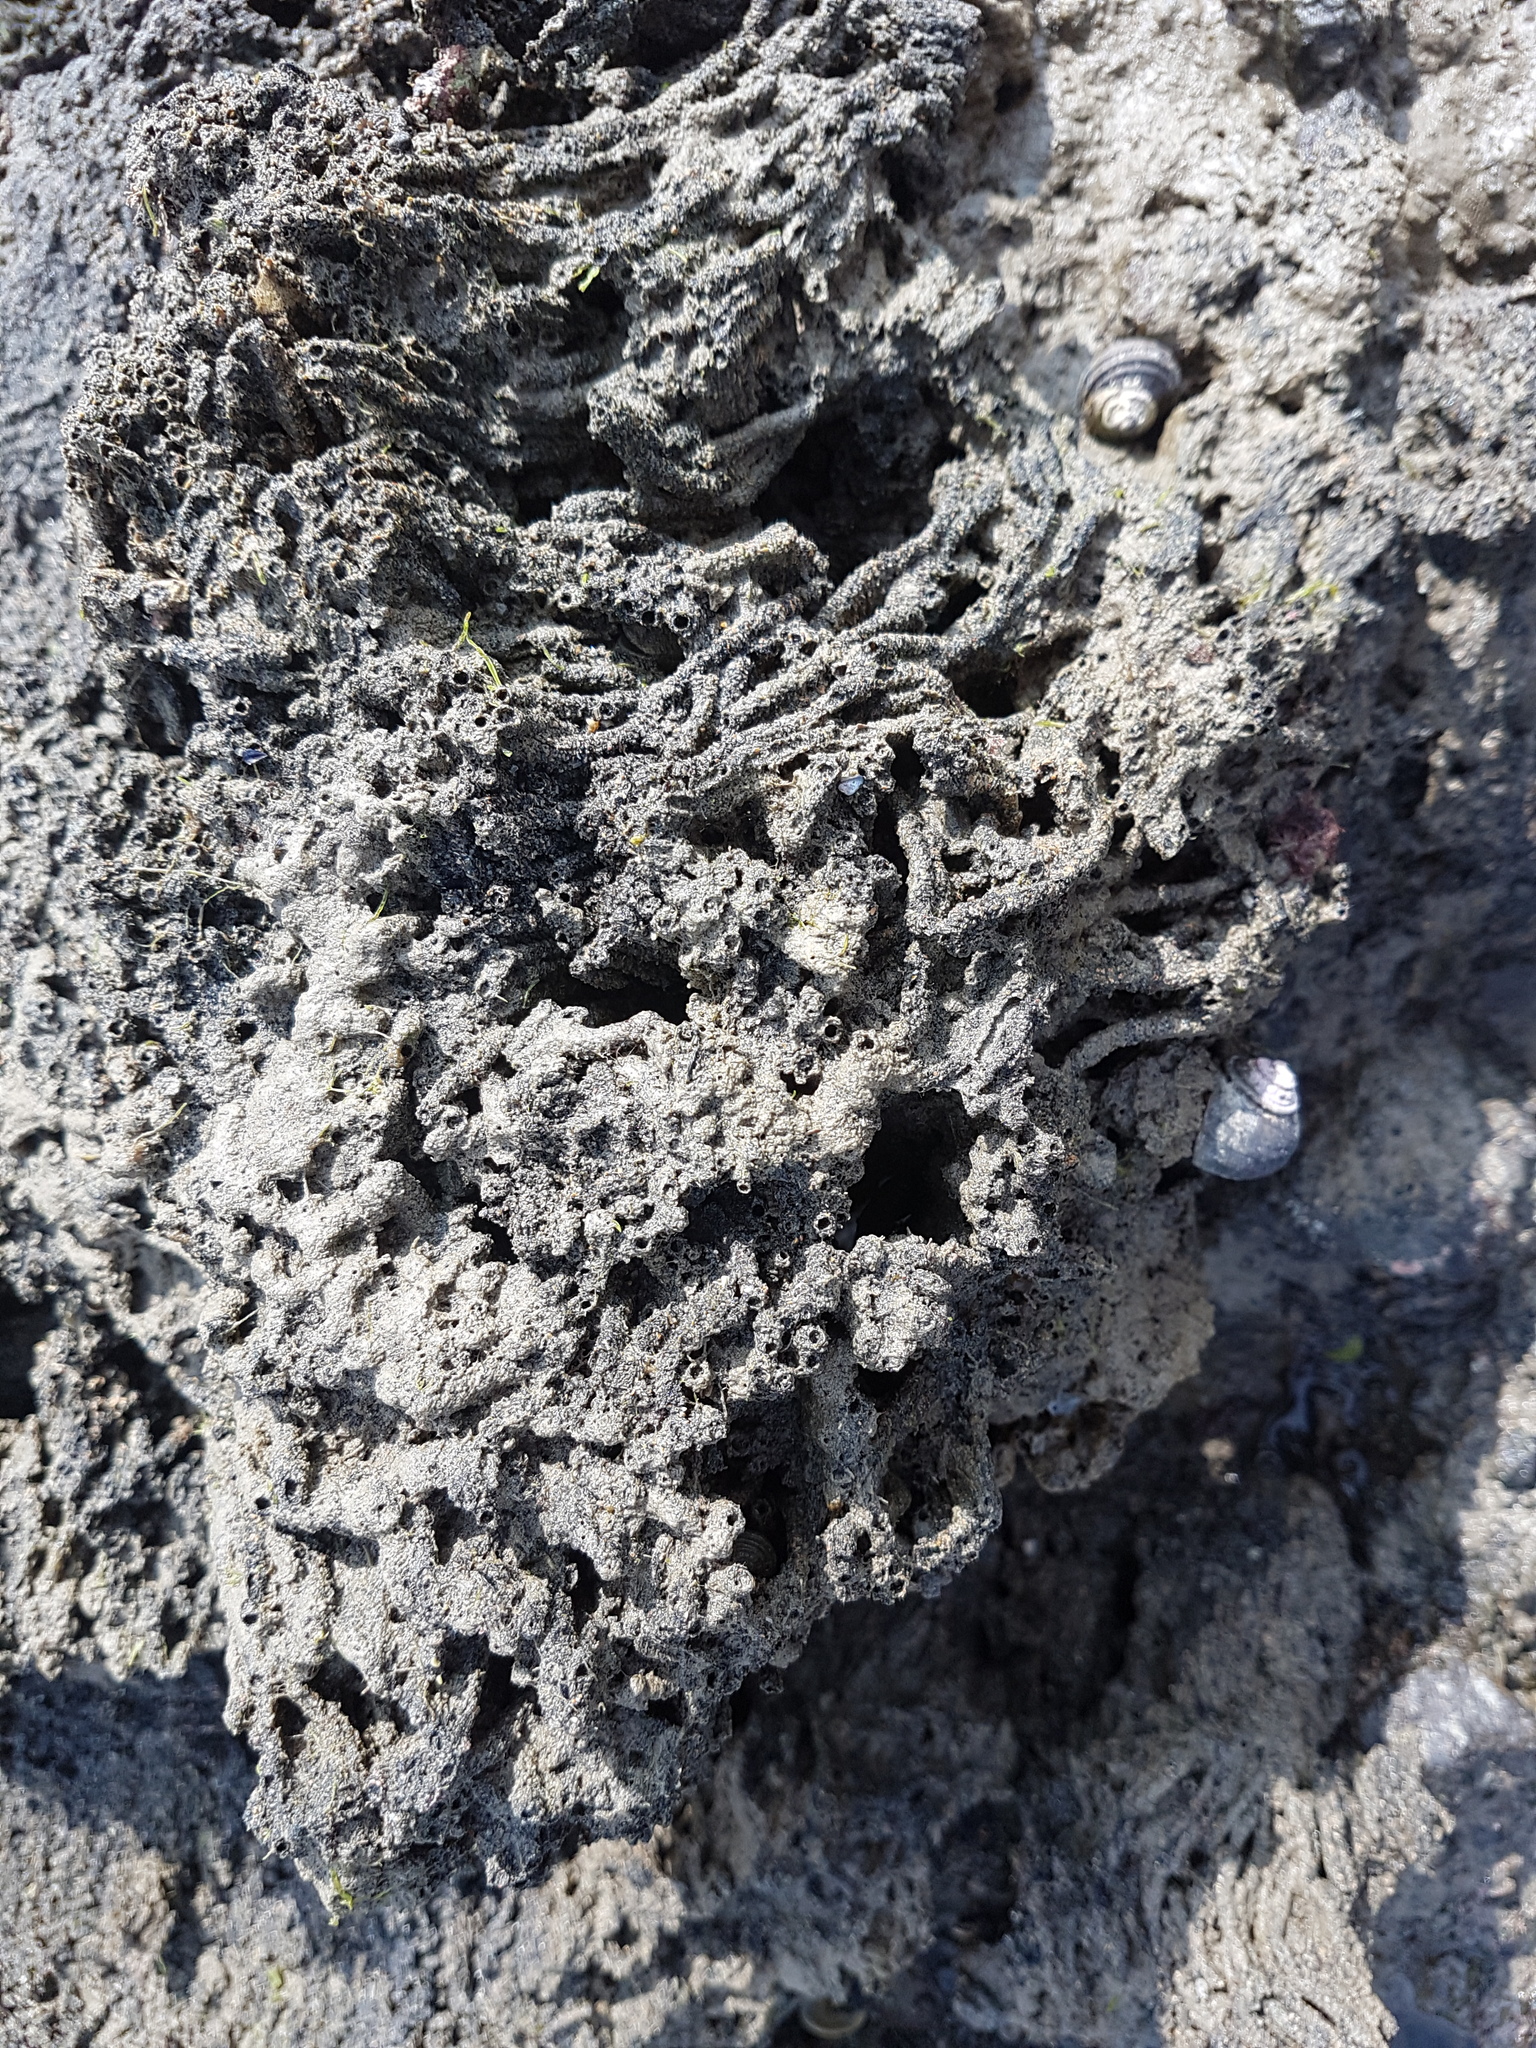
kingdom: Animalia
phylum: Annelida
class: Polychaeta
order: Sabellida
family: Sabellariidae
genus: Neosabellaria
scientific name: Neosabellaria kaiparaensis
